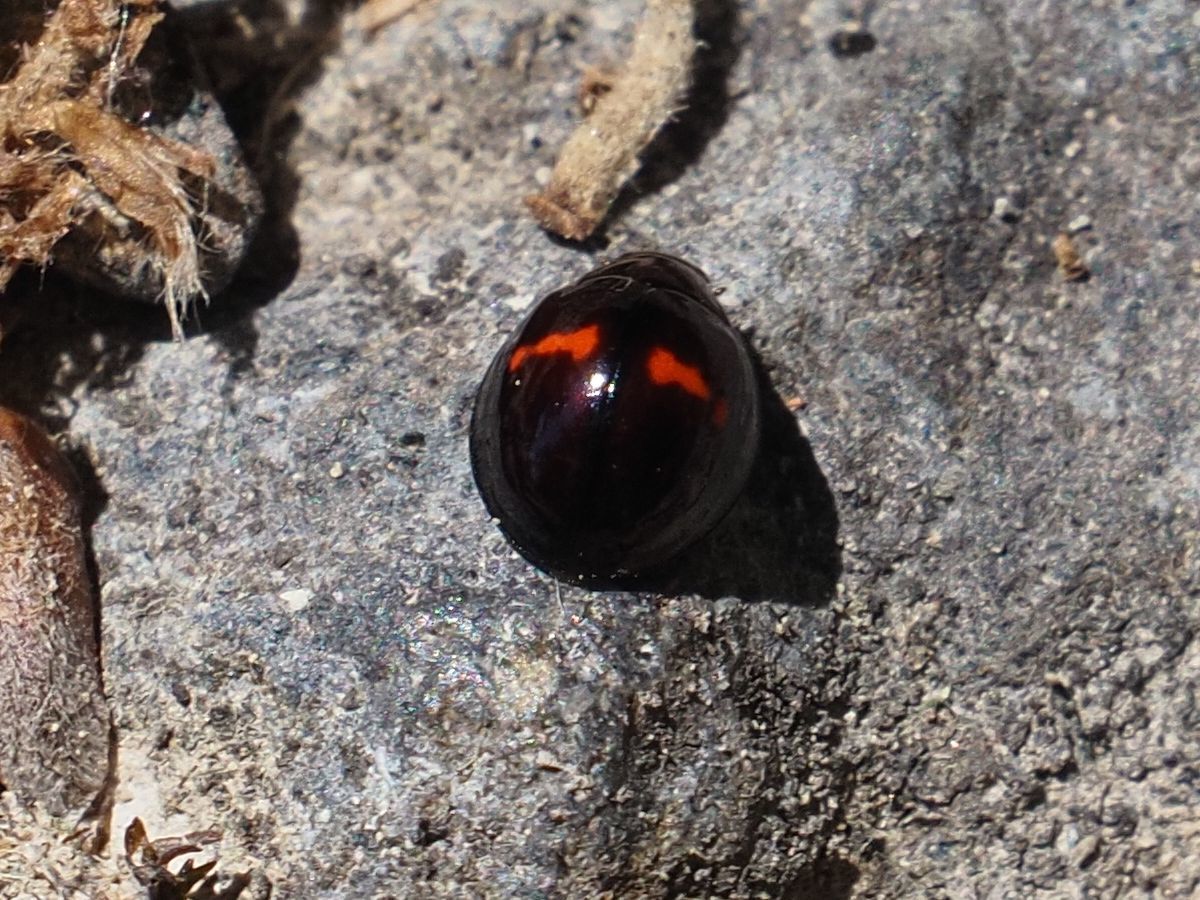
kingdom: Animalia
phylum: Arthropoda
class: Insecta
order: Coleoptera
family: Coccinellidae
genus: Chilocorus
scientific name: Chilocorus bipustulatus
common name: Heather ladybird
